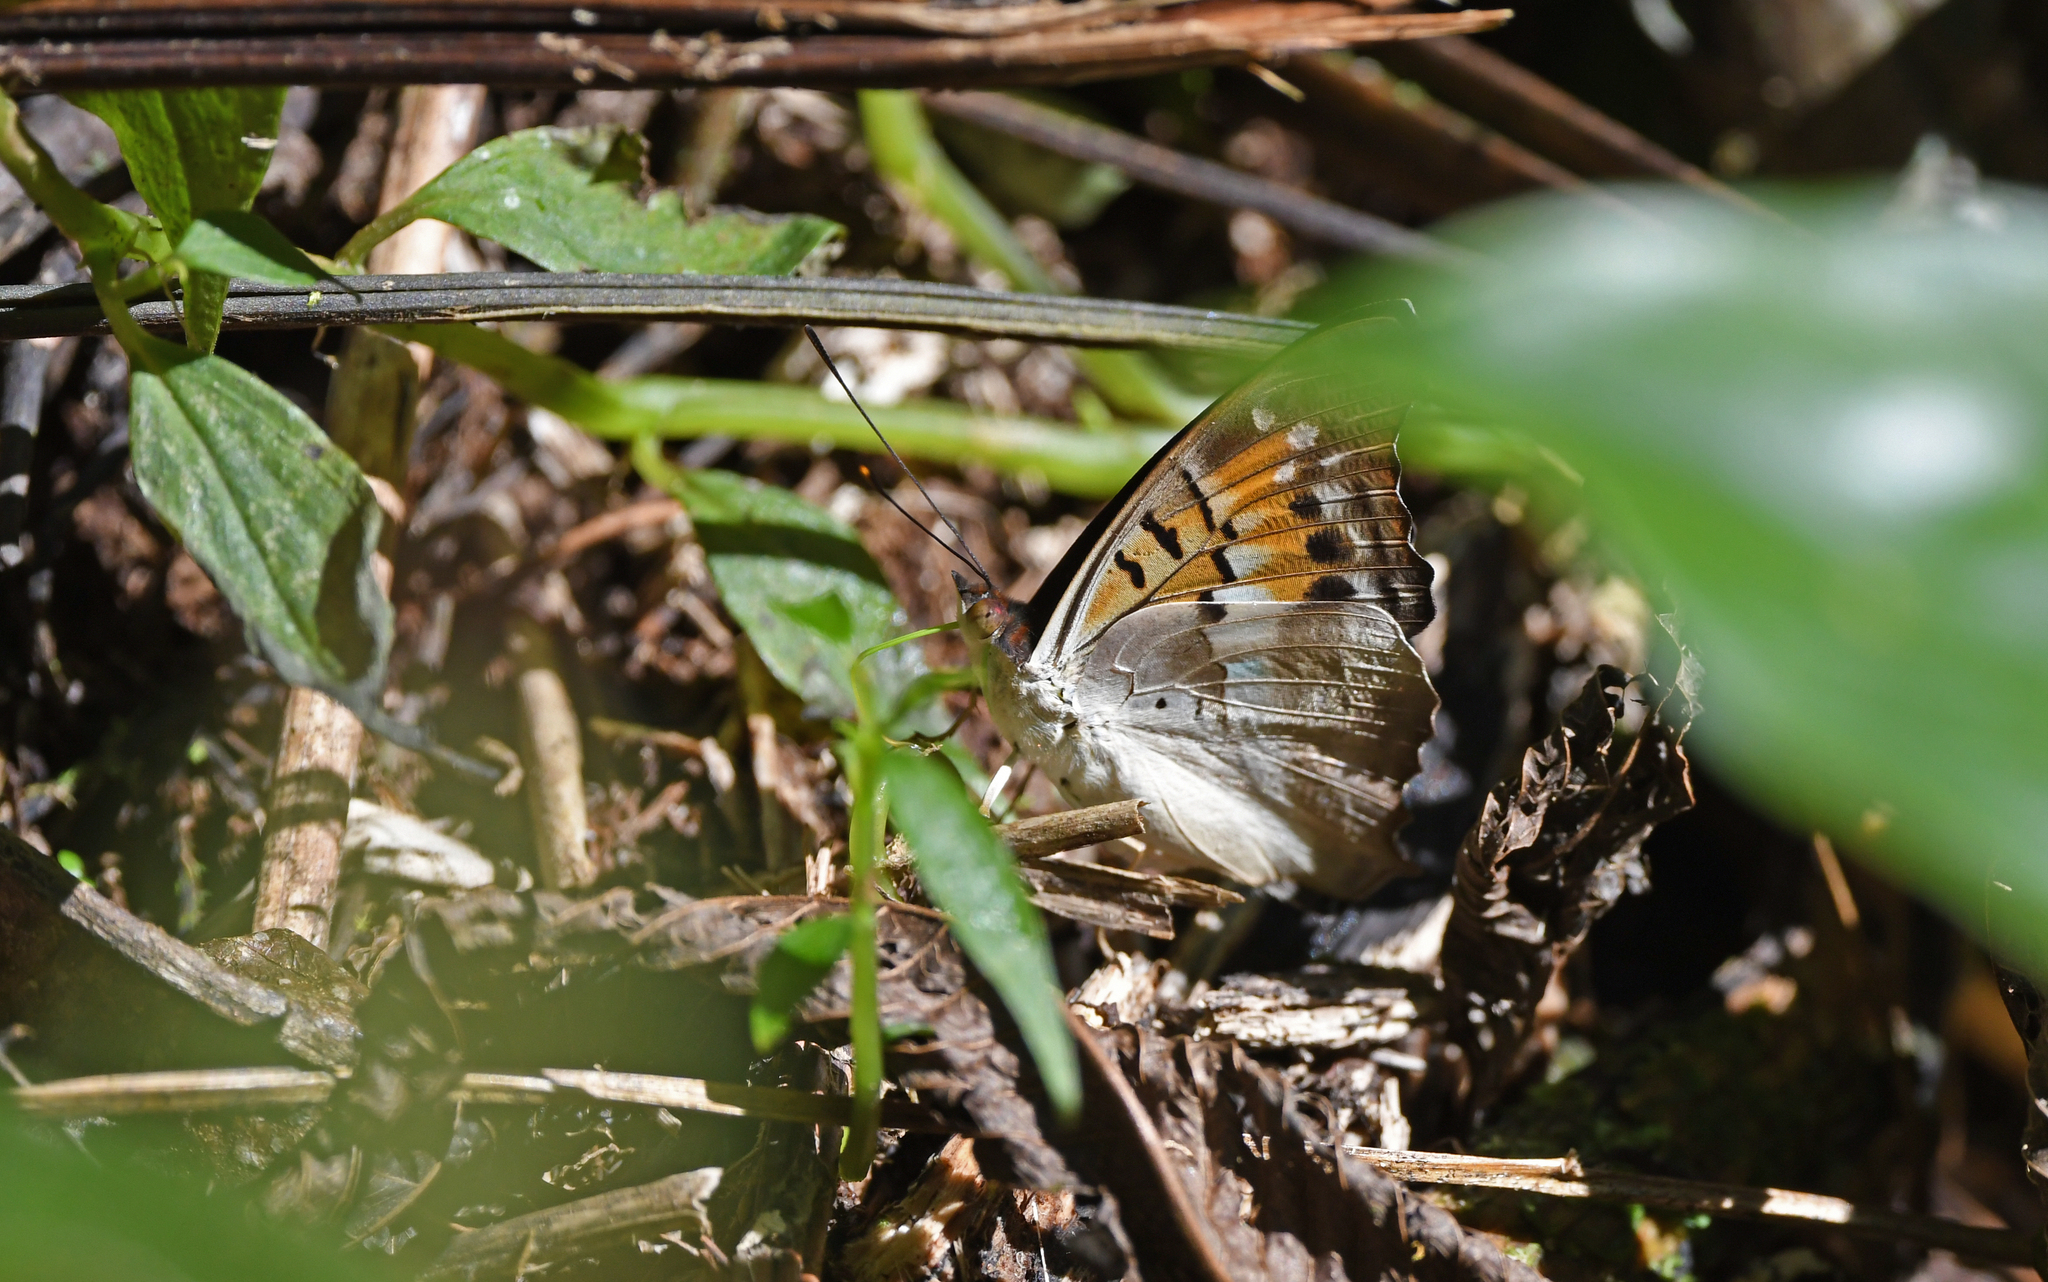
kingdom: Animalia
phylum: Arthropoda
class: Insecta
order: Lepidoptera
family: Nymphalidae
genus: Doxocopa
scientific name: Doxocopa lavinia
